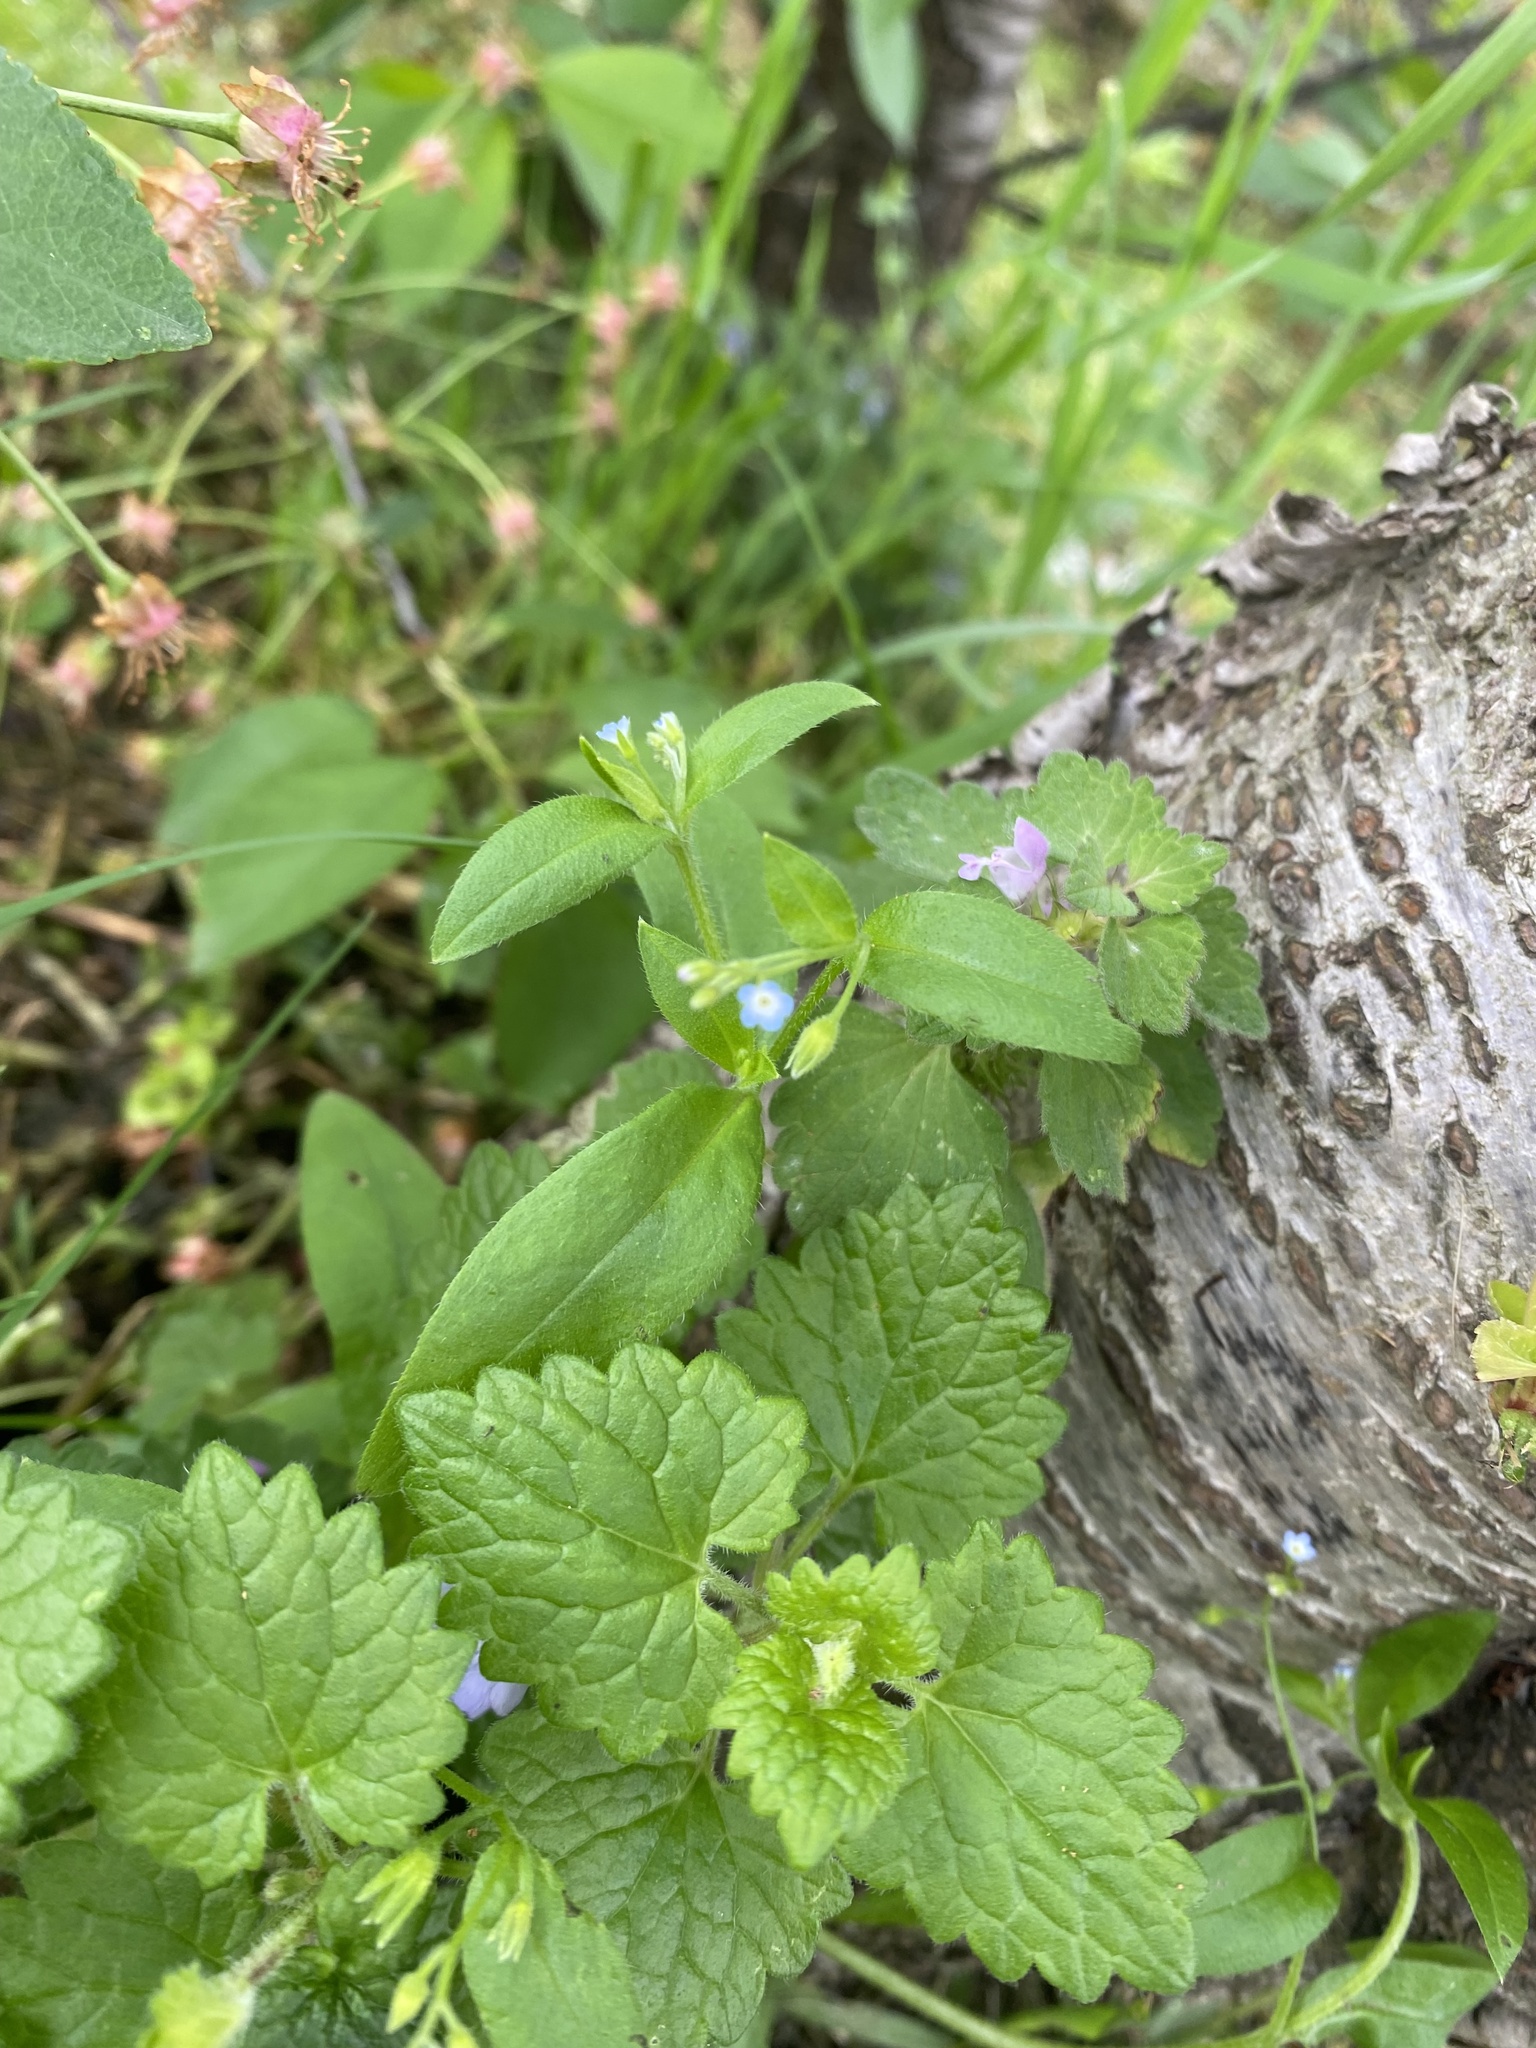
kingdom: Plantae
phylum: Tracheophyta
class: Magnoliopsida
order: Boraginales
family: Boraginaceae
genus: Myosotis
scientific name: Myosotis sparsiflora
